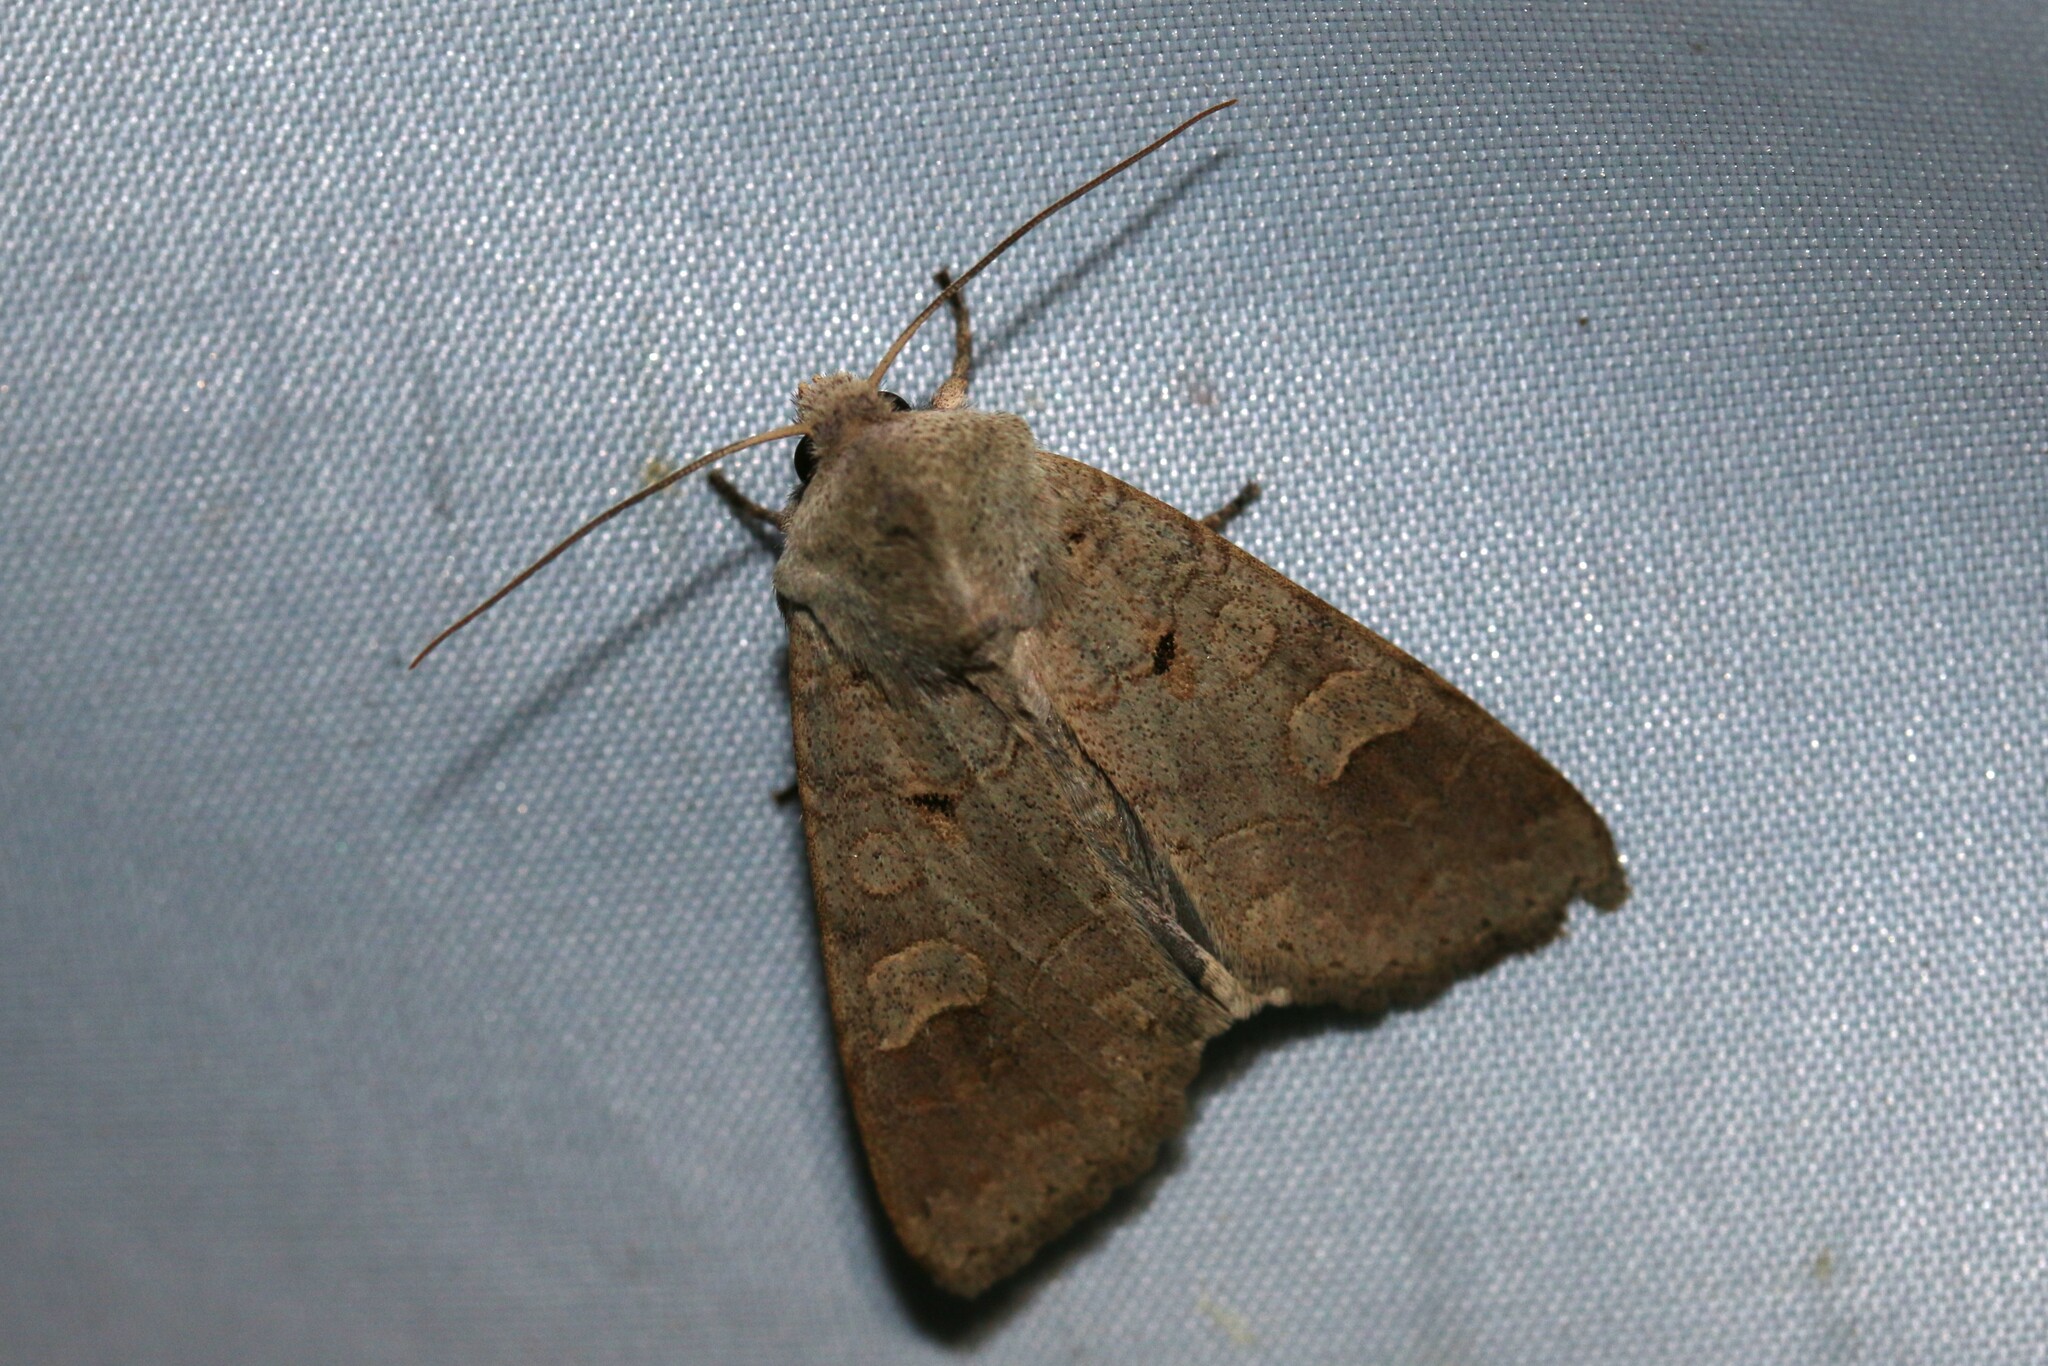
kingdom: Animalia
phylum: Arthropoda
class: Insecta
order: Lepidoptera
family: Noctuidae
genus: Ammoconia
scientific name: Ammoconia caecimacula
